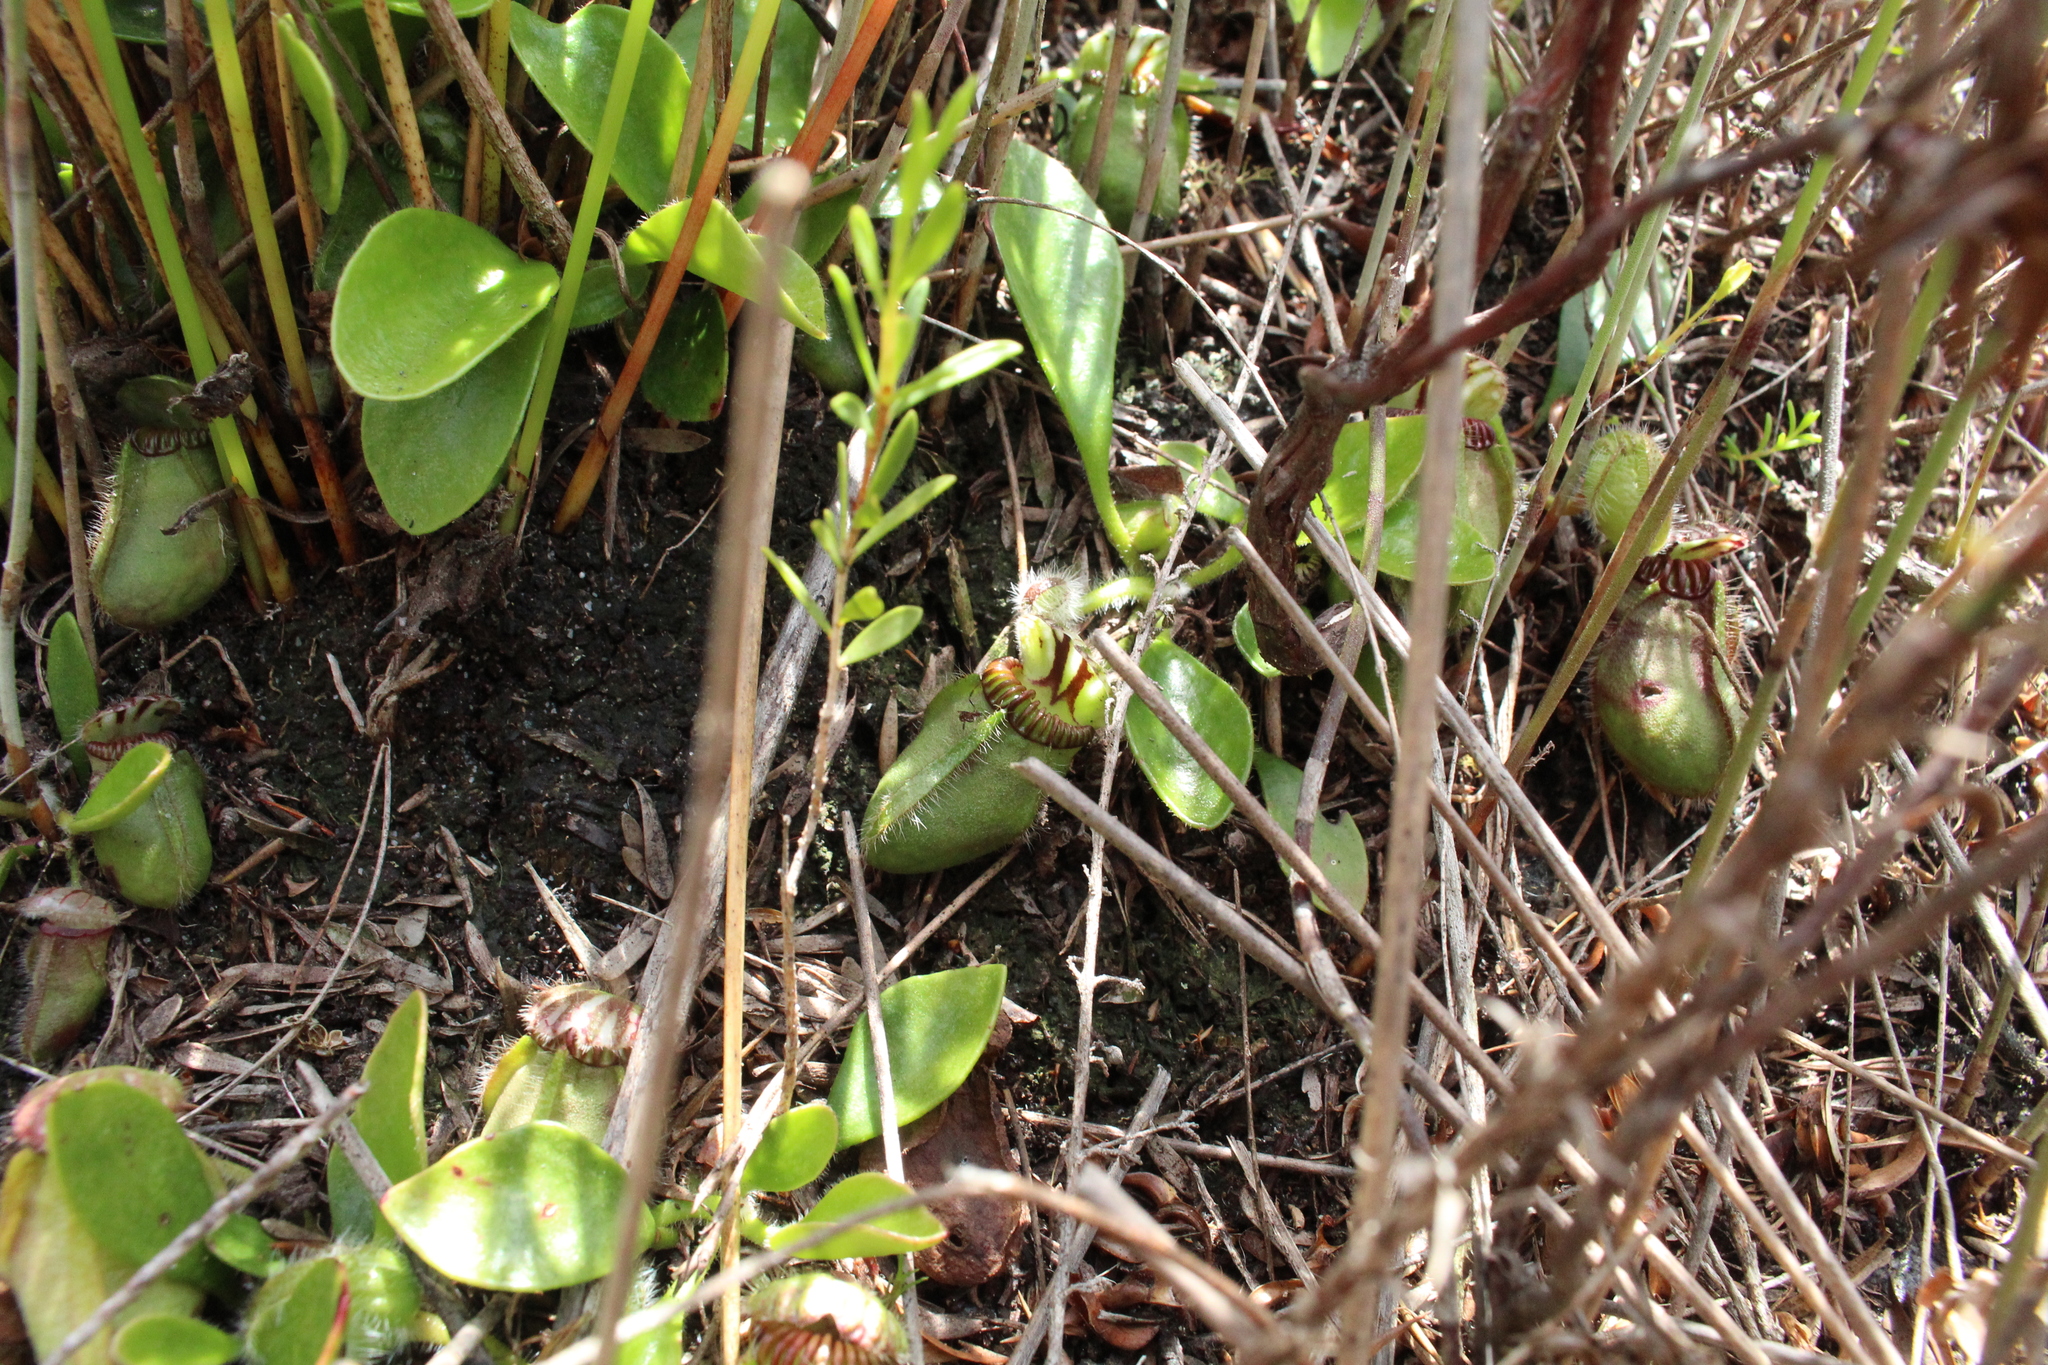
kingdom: Plantae
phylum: Tracheophyta
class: Magnoliopsida
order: Oxalidales
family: Cephalotaceae
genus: Cephalotus
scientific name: Cephalotus follicularis
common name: Australian pitcher plant
